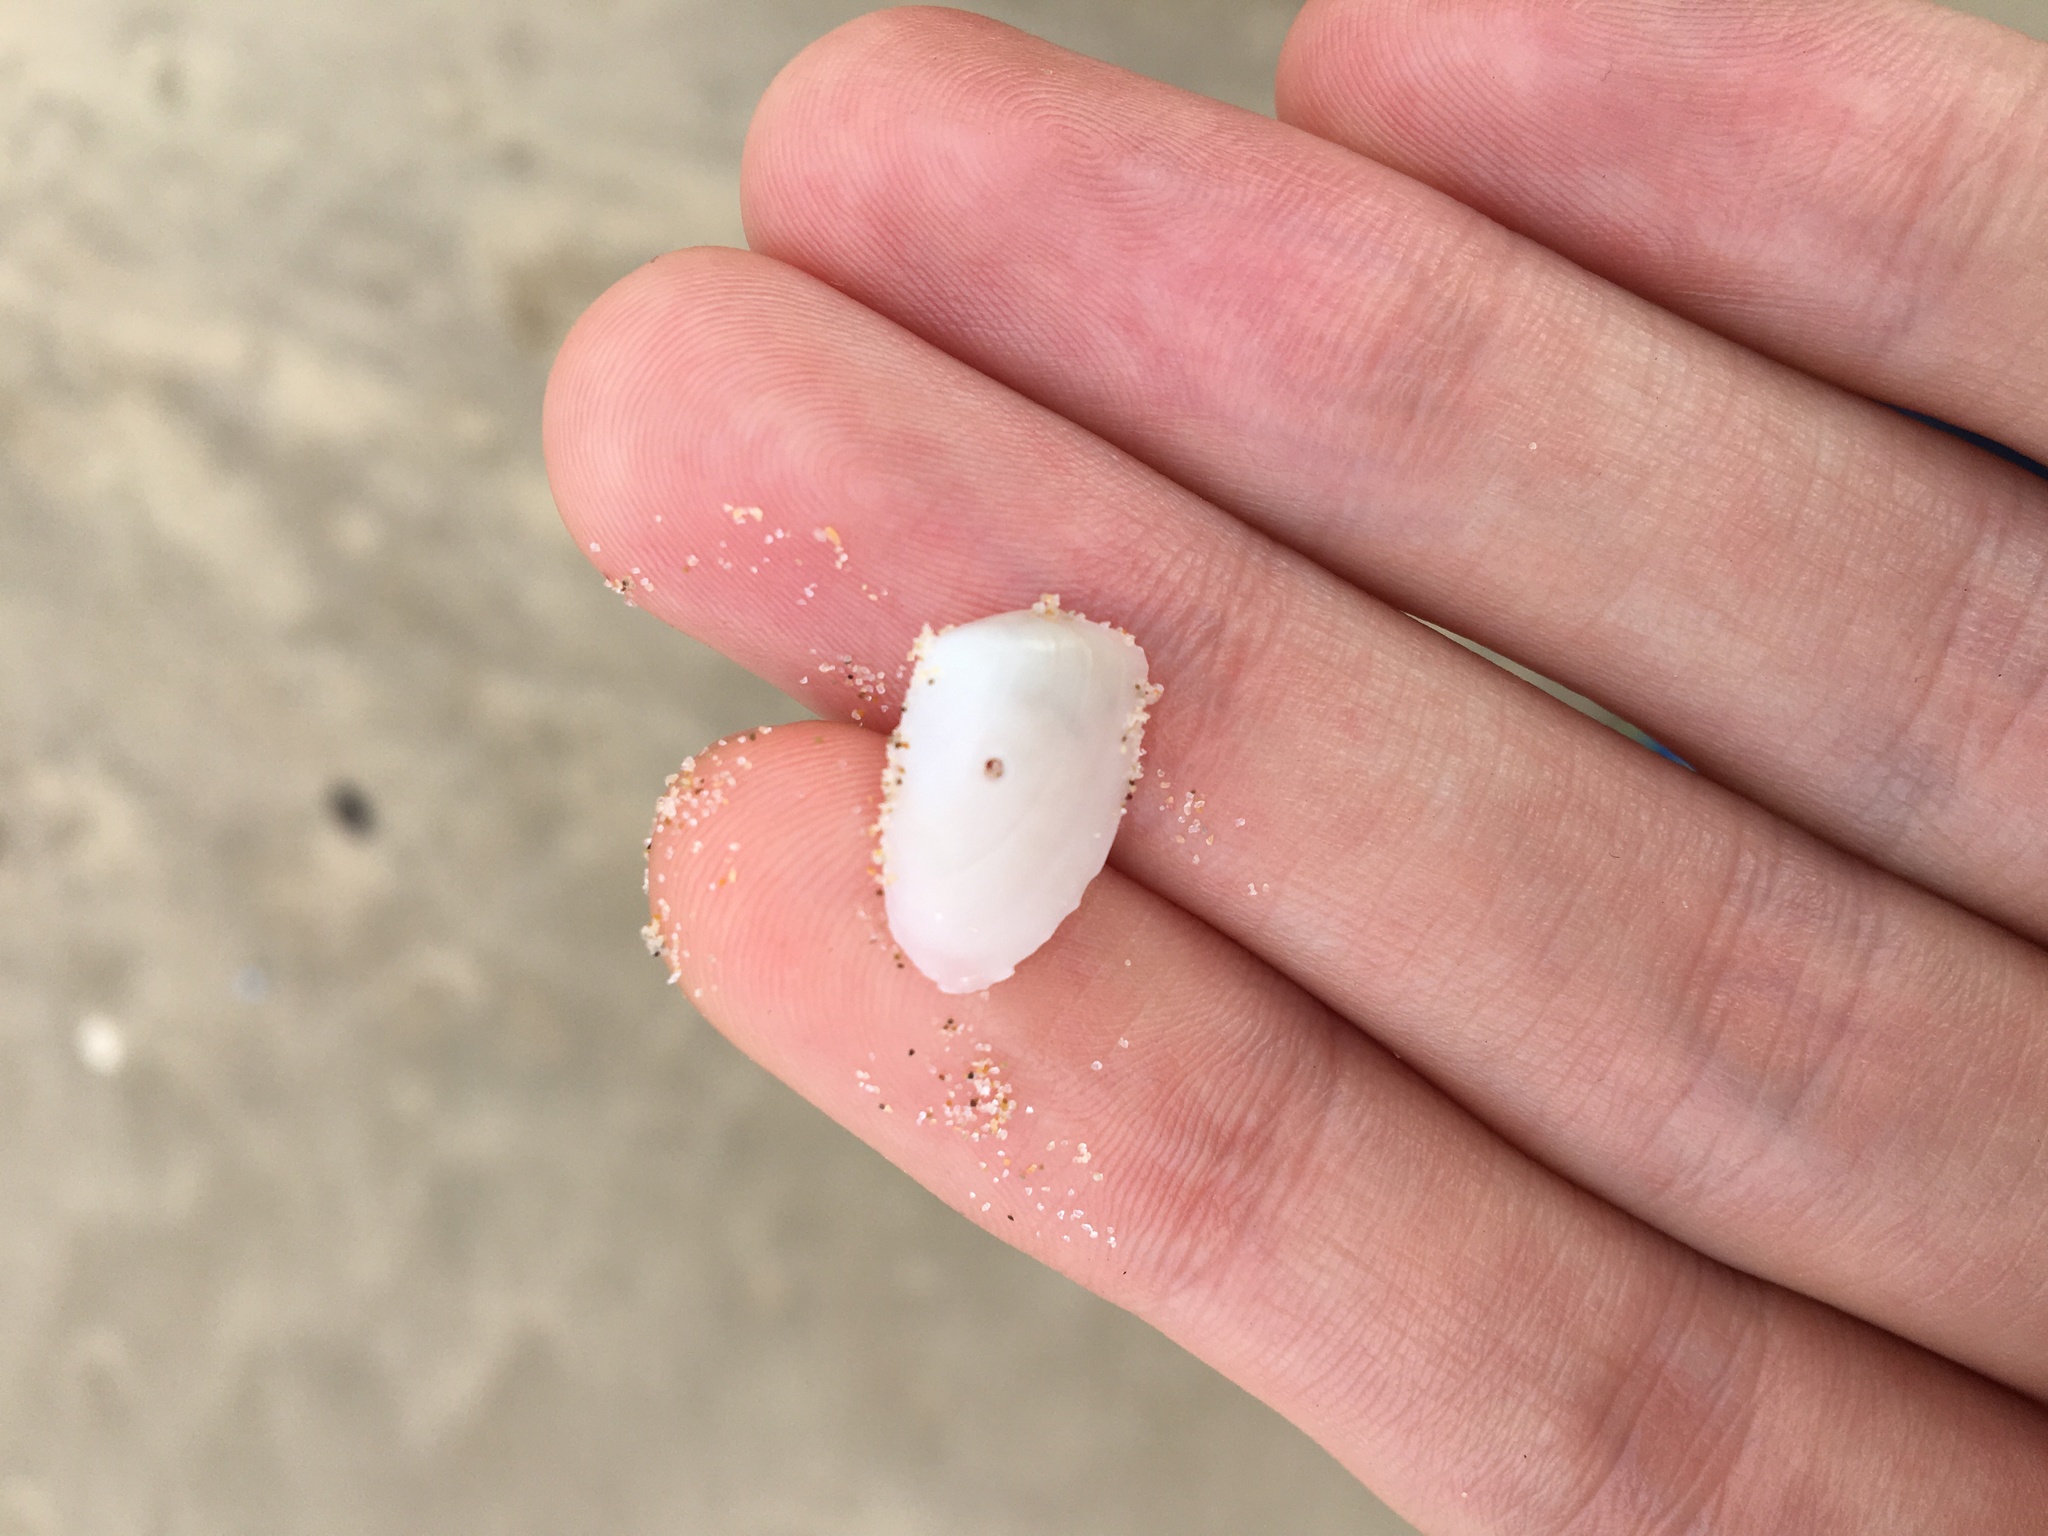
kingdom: Animalia
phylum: Mollusca
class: Bivalvia
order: Venerida
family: Mesodesmatidae
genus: Paphies
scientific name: Paphies angusta
